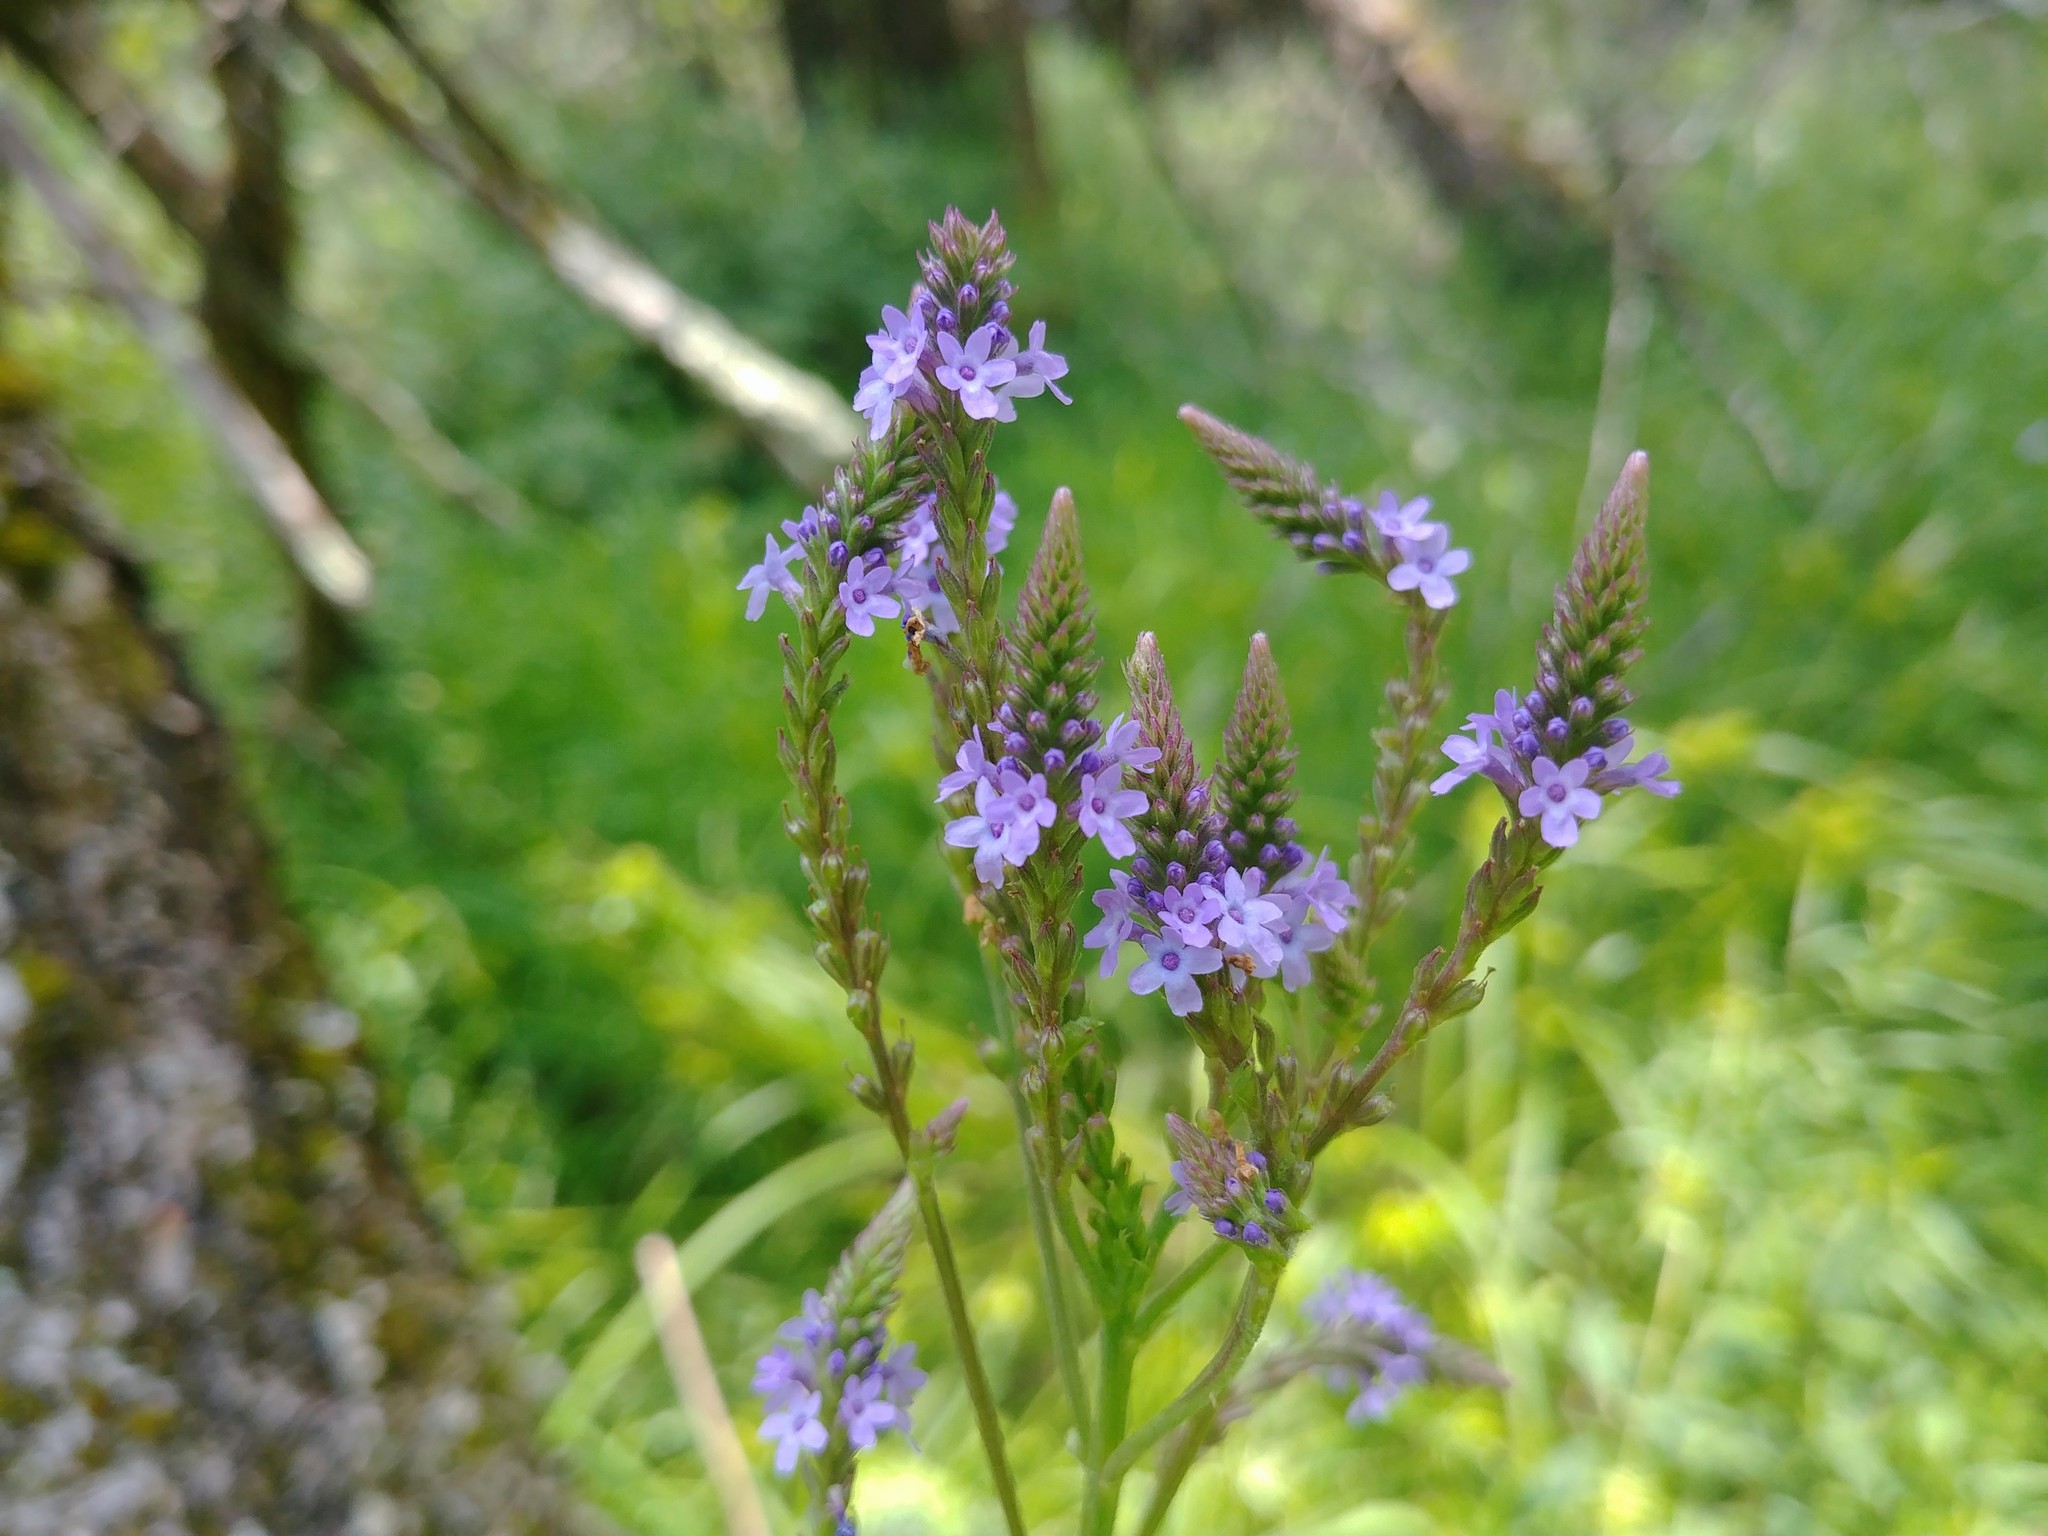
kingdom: Plantae
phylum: Tracheophyta
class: Magnoliopsida
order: Lamiales
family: Verbenaceae
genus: Verbena
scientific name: Verbena hastata
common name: American blue vervain
